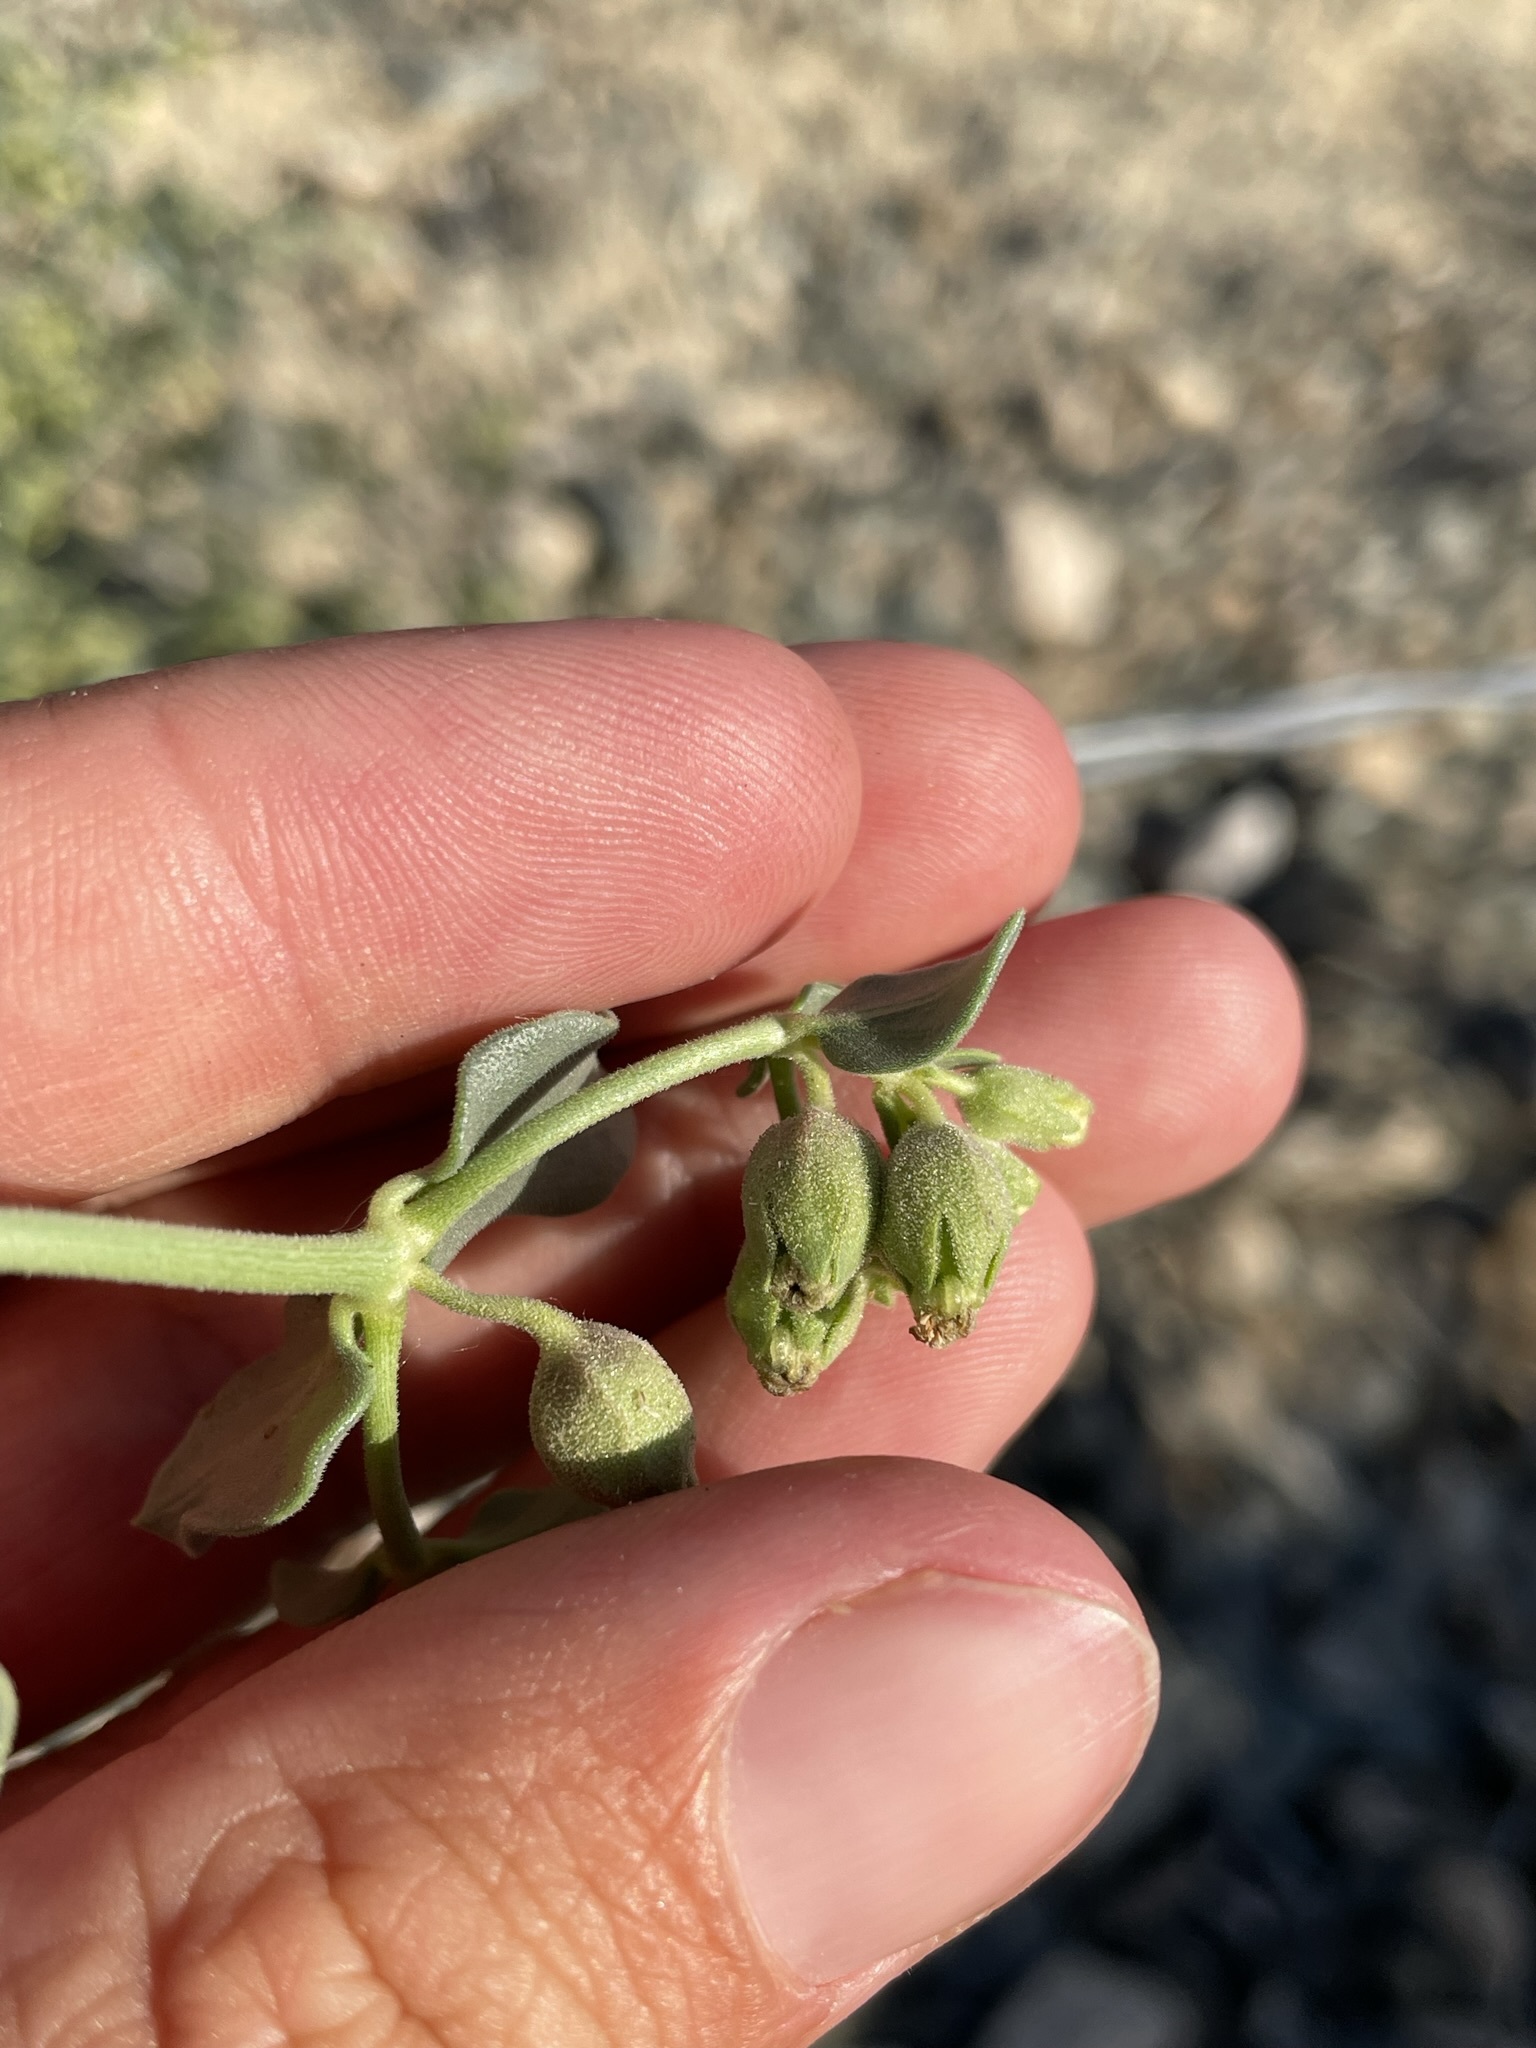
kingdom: Plantae
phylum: Tracheophyta
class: Magnoliopsida
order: Caryophyllales
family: Nyctaginaceae
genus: Mirabilis
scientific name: Mirabilis laevis
